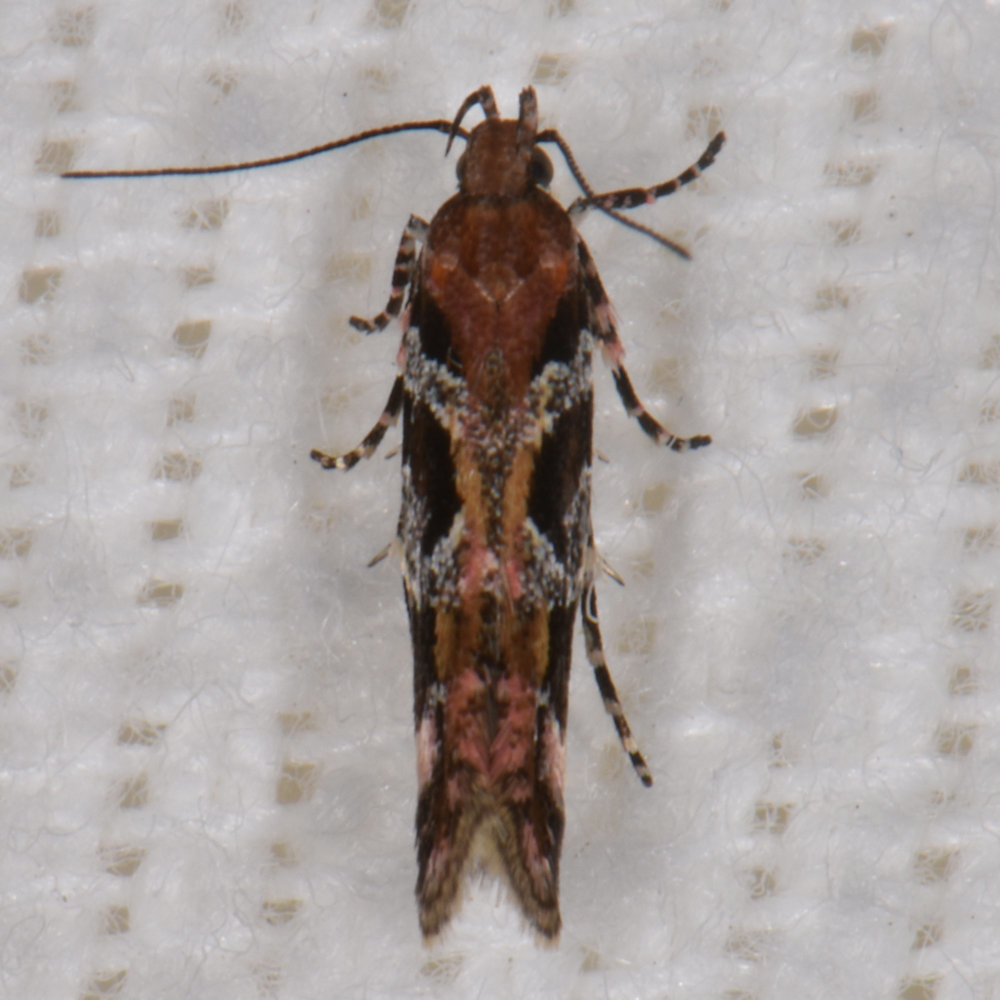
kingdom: Animalia
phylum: Arthropoda
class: Insecta
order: Lepidoptera
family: Gelechiidae
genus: Aristotelia
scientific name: Aristotelia roseosuffusella
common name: Pink-washed aristotelia moth
